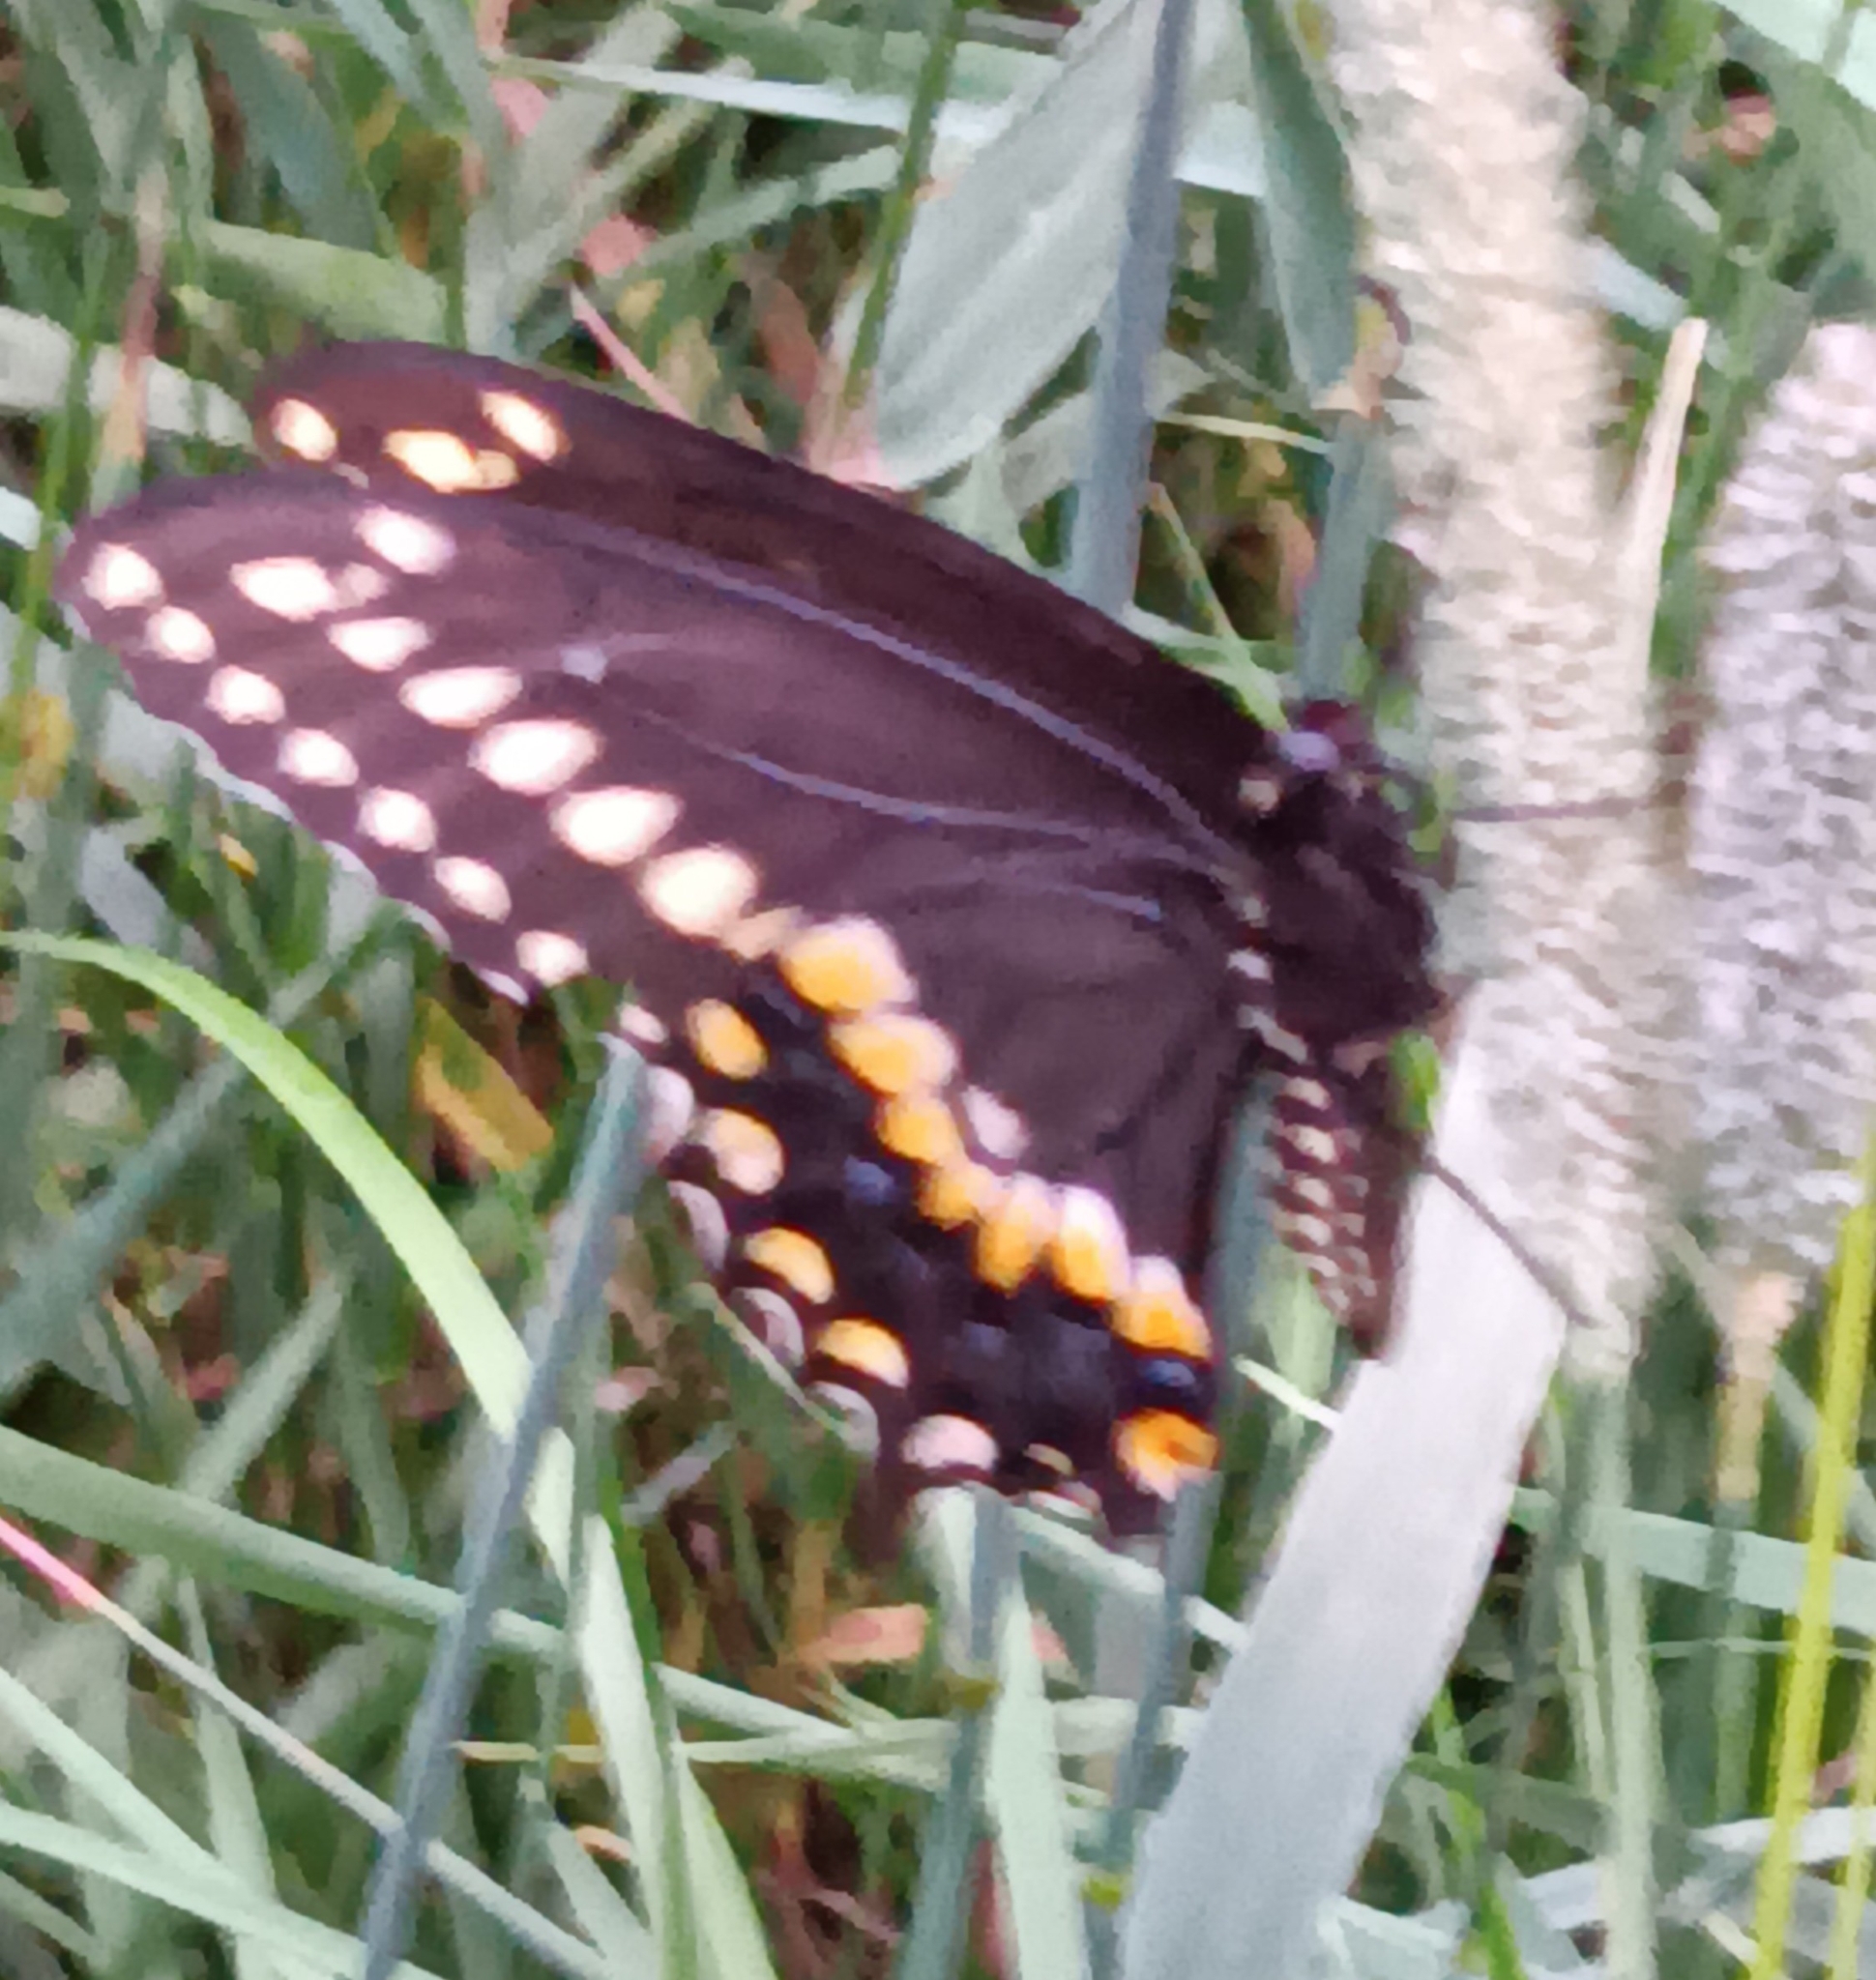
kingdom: Animalia
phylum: Arthropoda
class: Insecta
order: Lepidoptera
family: Papilionidae
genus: Papilio
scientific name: Papilio polyxenes
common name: Black swallowtail
